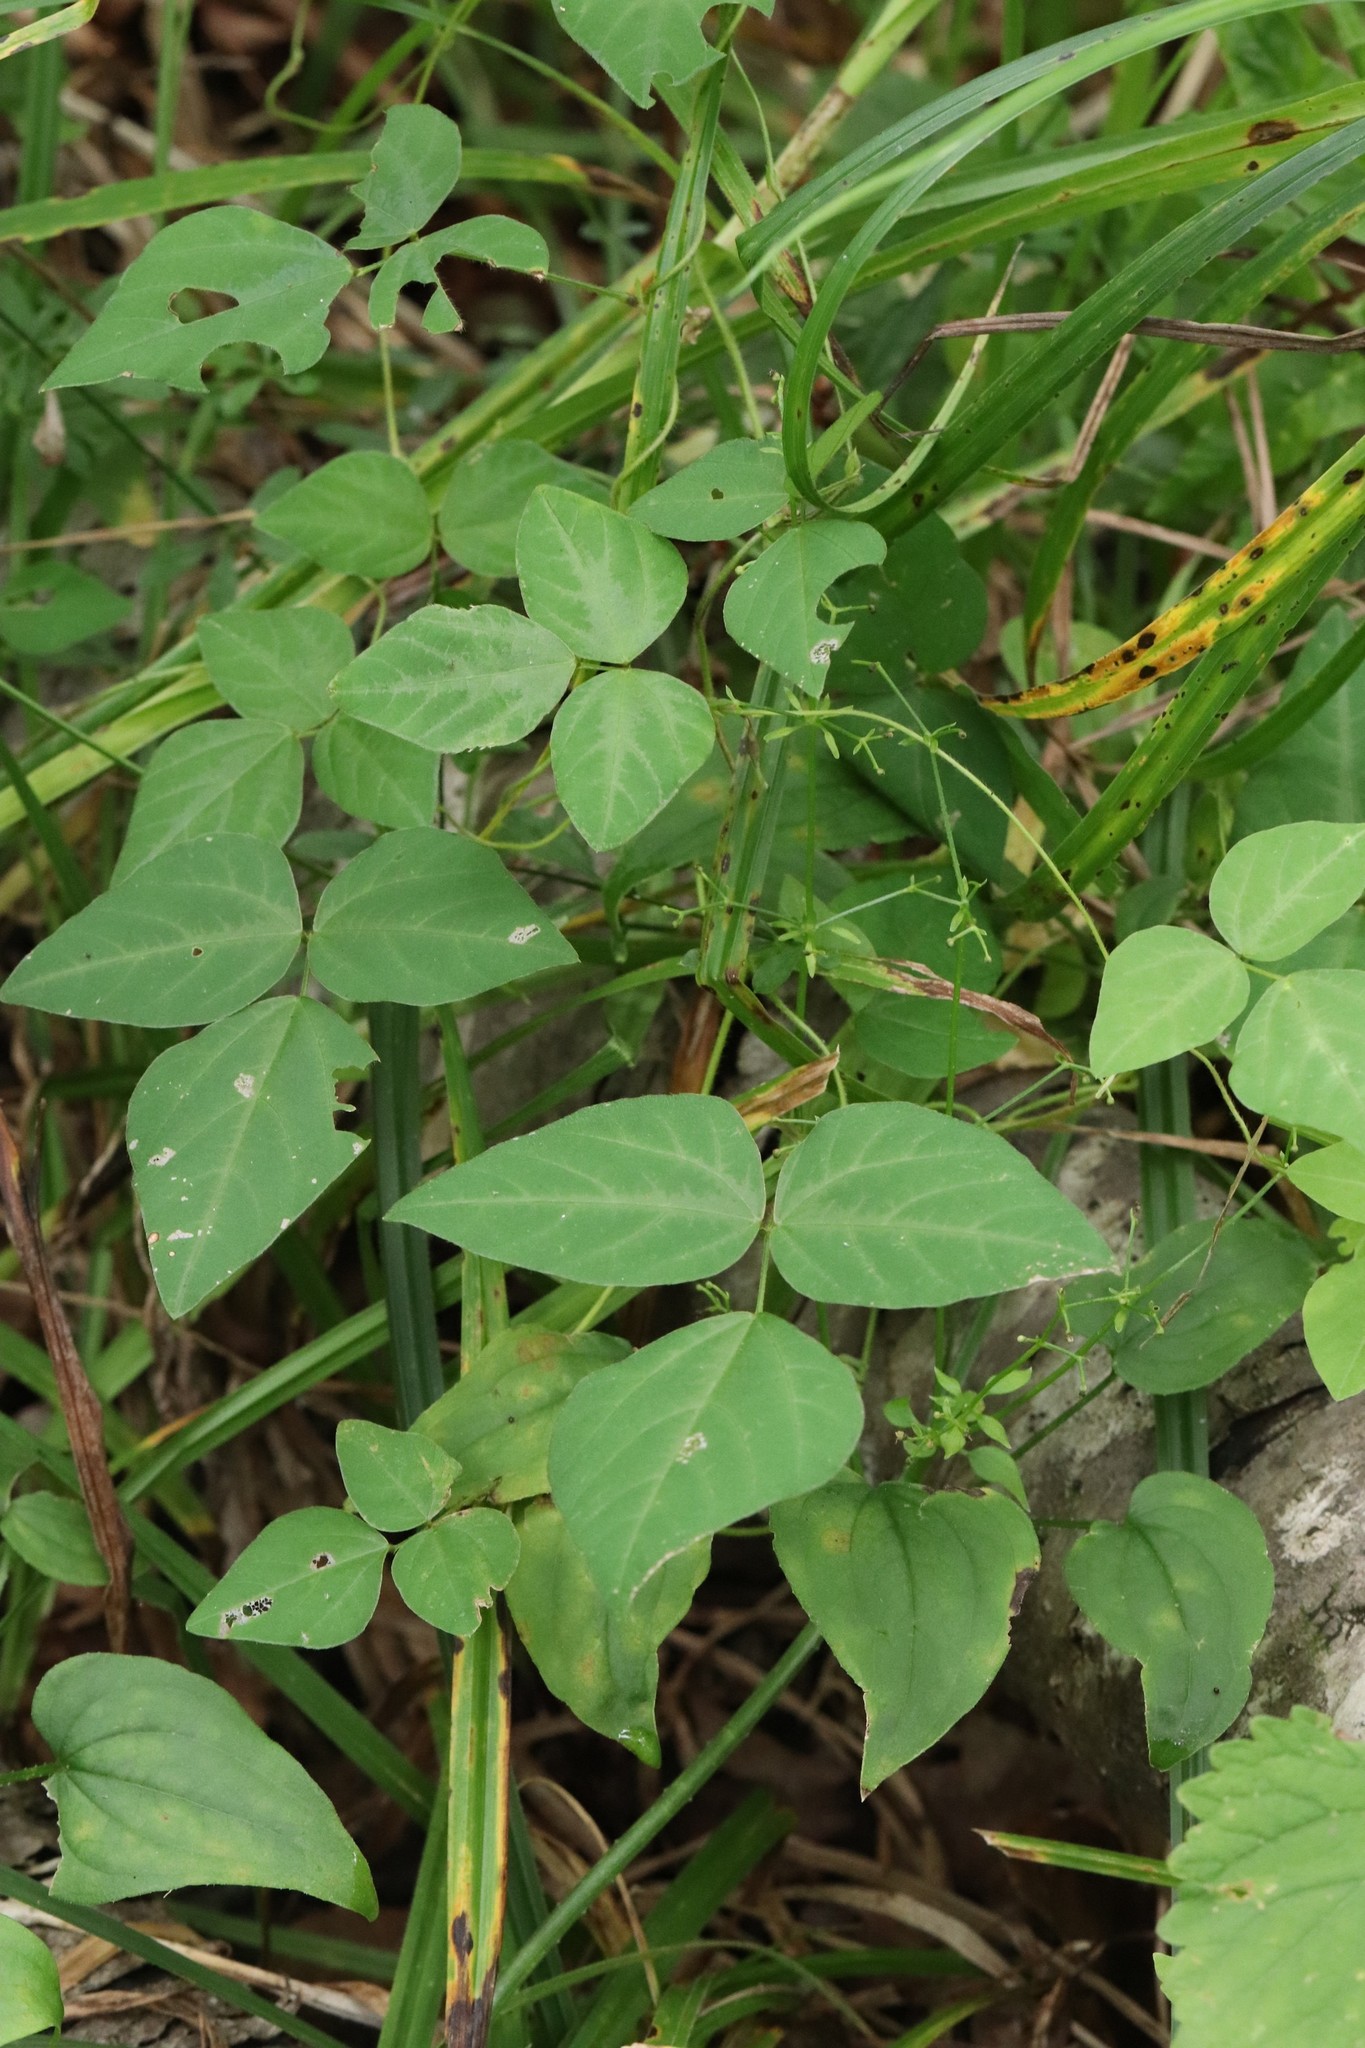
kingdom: Plantae
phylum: Tracheophyta
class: Magnoliopsida
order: Fabales
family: Fabaceae
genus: Amphicarpaea
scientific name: Amphicarpaea edgeworthii
